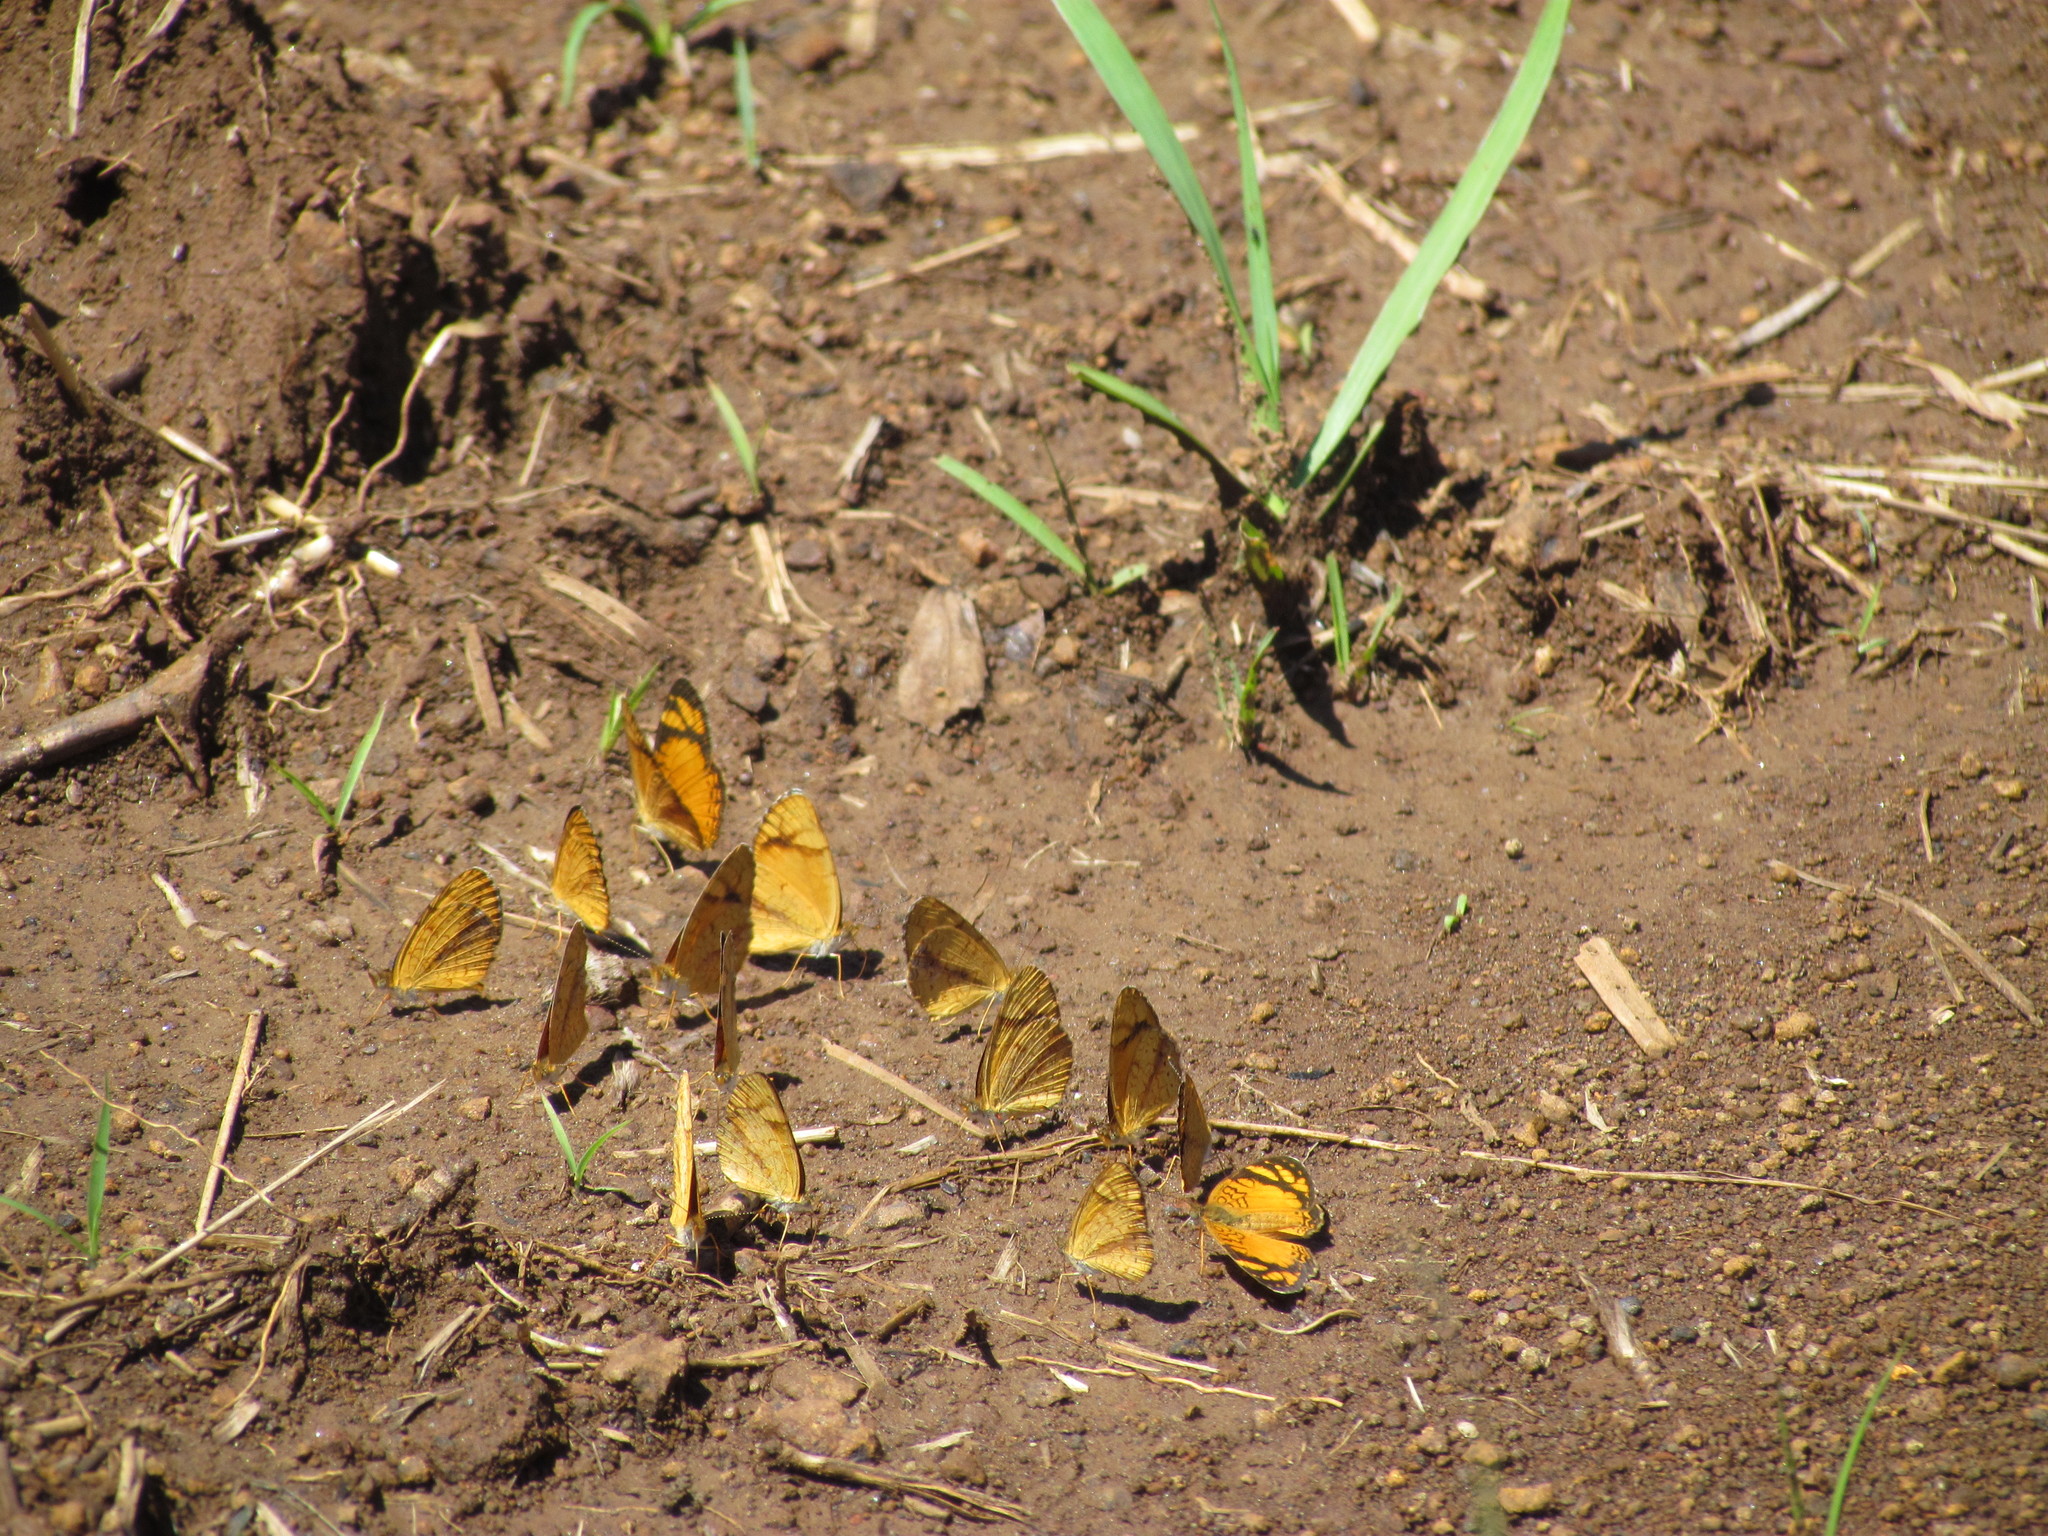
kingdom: Animalia
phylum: Arthropoda
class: Insecta
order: Lepidoptera
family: Nymphalidae
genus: Tegosa
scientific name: Tegosa orobia
